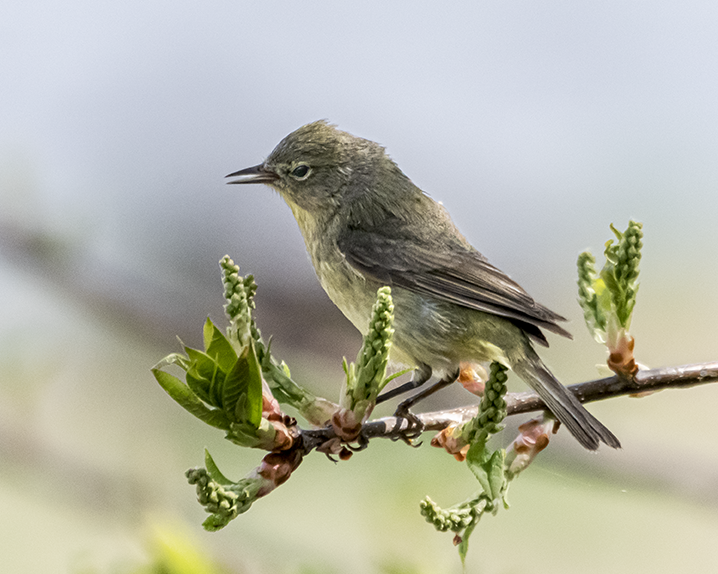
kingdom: Animalia
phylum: Chordata
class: Aves
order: Passeriformes
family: Parulidae
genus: Leiothlypis
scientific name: Leiothlypis celata
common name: Orange-crowned warbler
